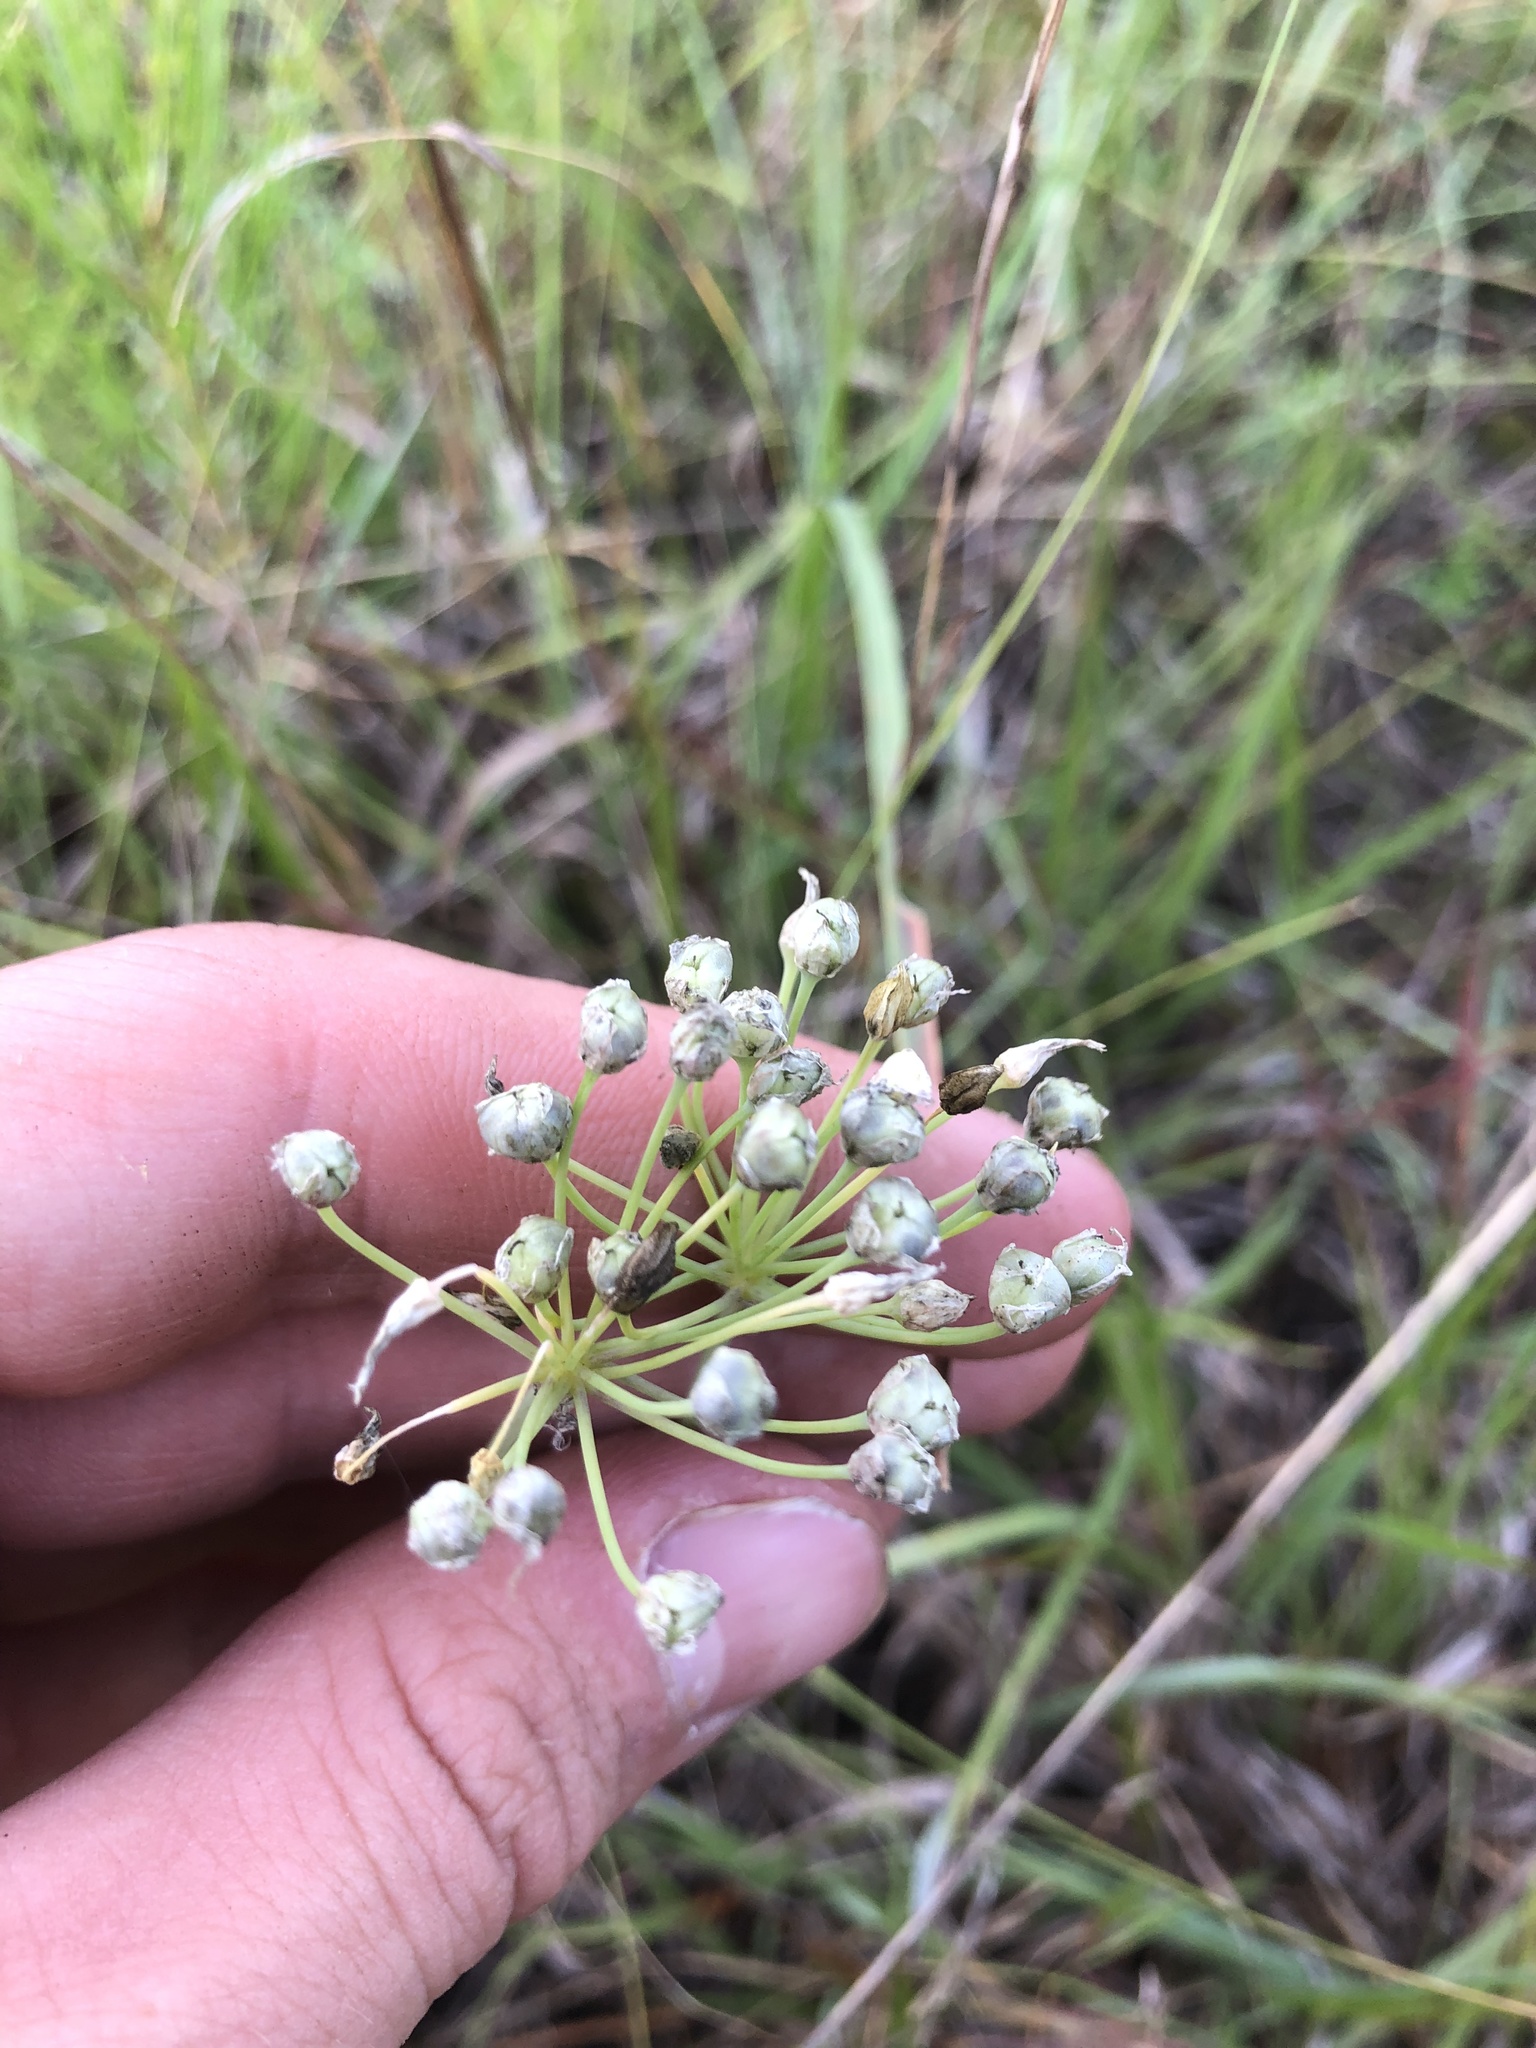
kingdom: Plantae
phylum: Tracheophyta
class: Liliopsida
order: Asparagales
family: Amaryllidaceae
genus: Allium
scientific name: Allium canadense
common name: Meadow garlic
